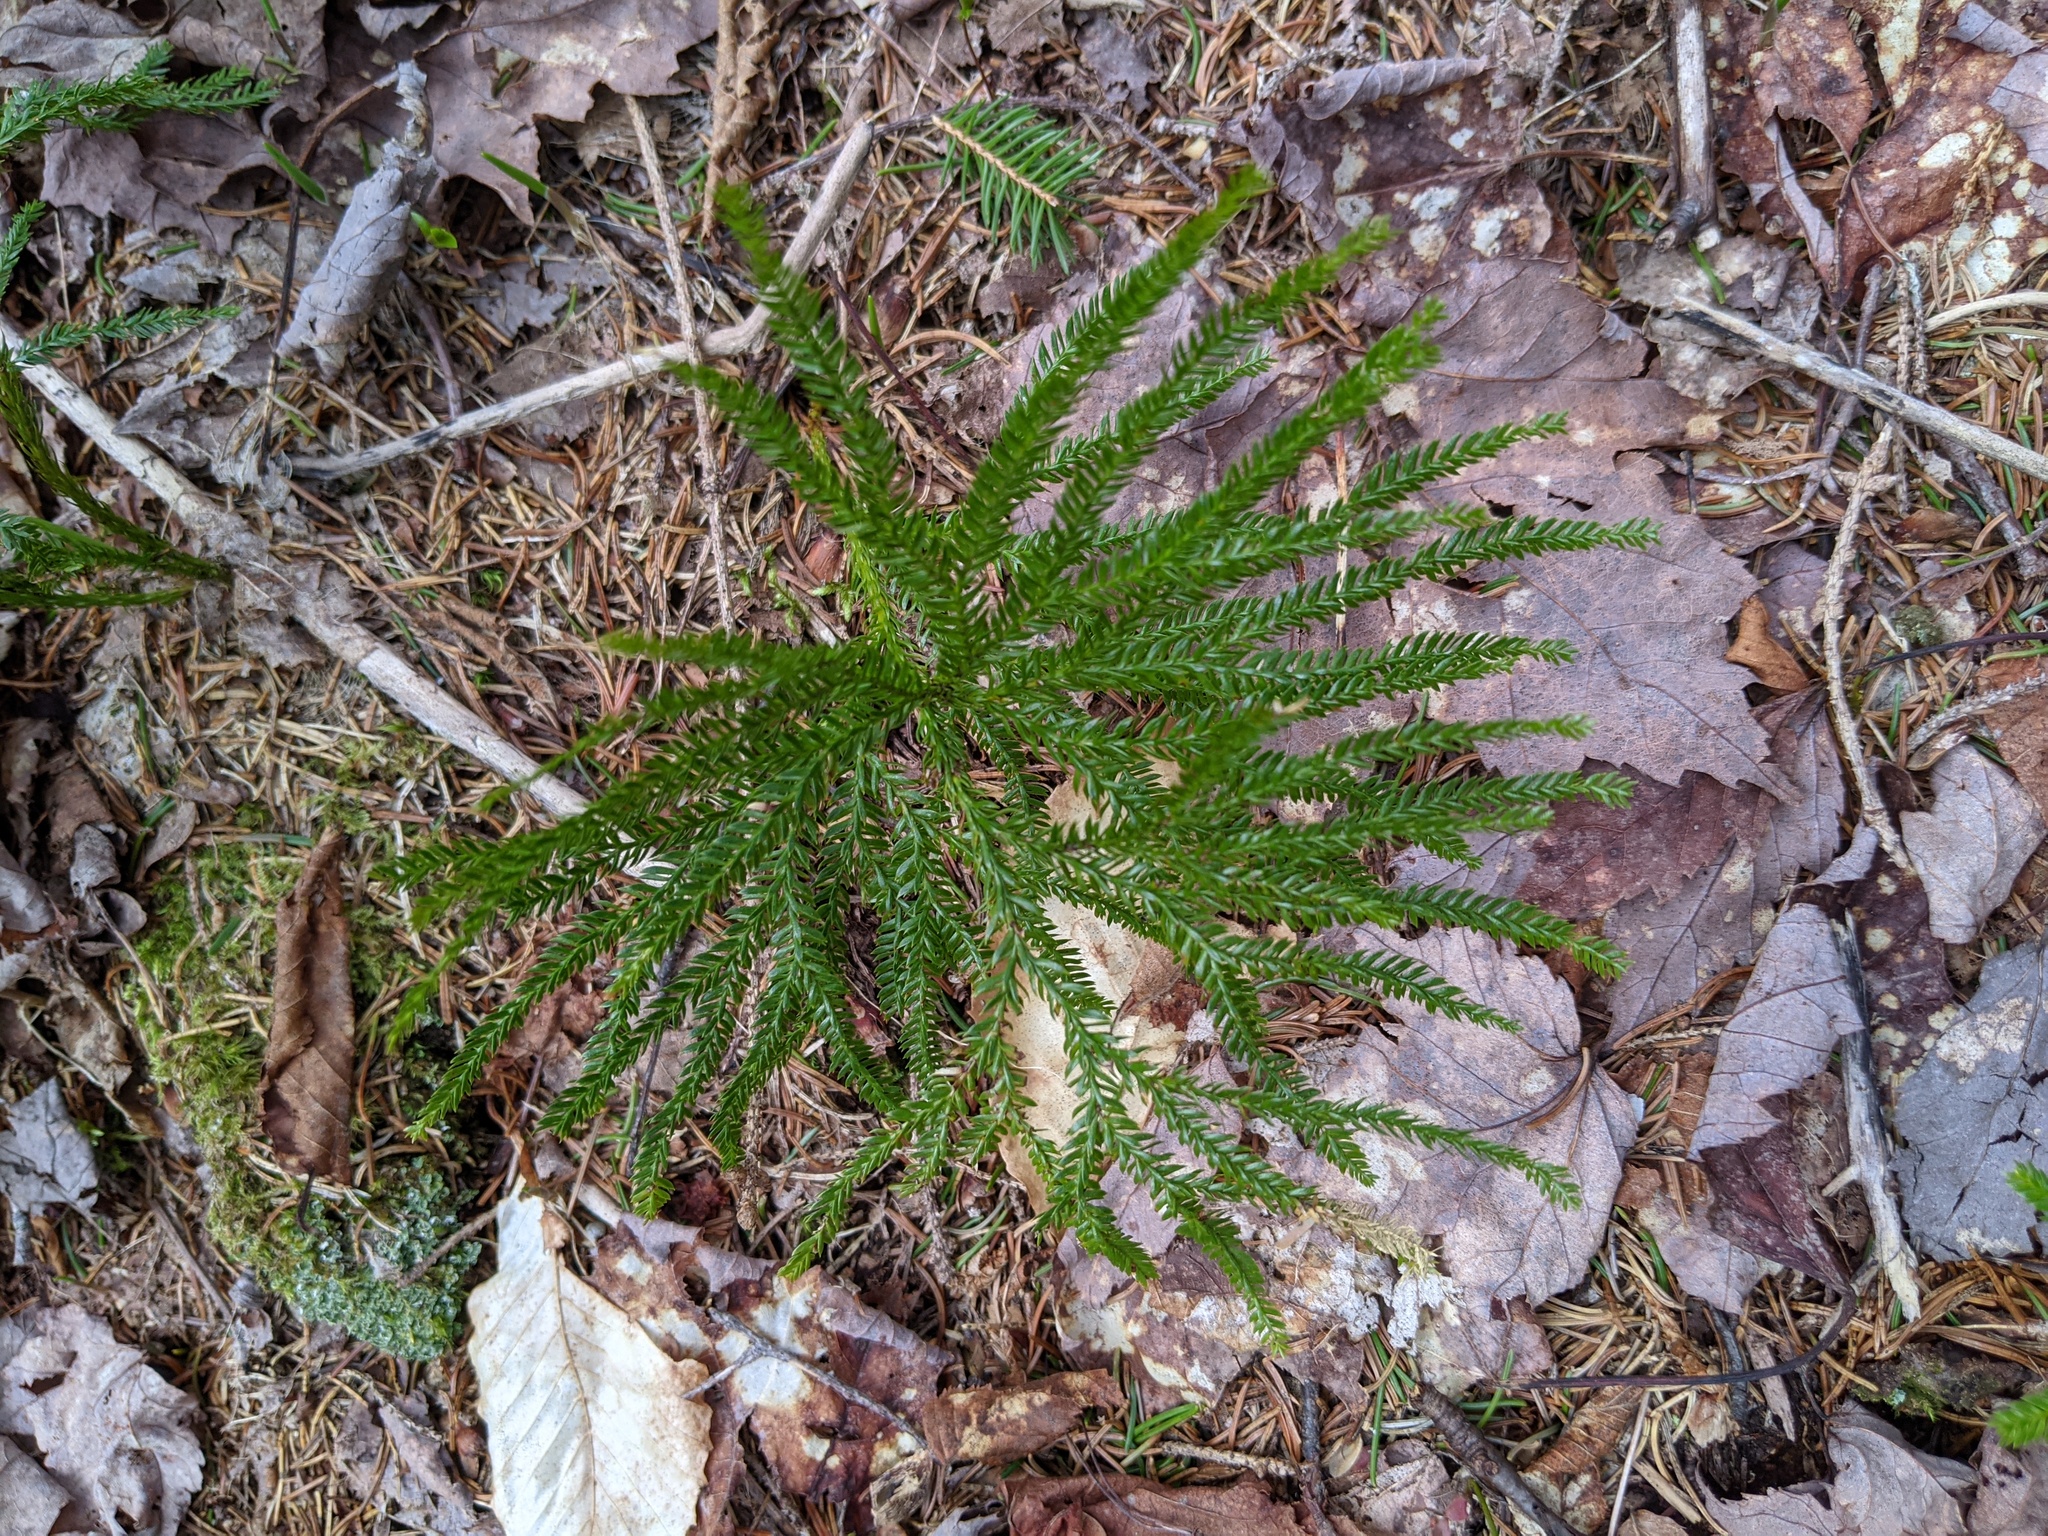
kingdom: Plantae
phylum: Tracheophyta
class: Lycopodiopsida
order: Lycopodiales
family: Lycopodiaceae
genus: Dendrolycopodium
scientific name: Dendrolycopodium dendroideum
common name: Northern tree-clubmoss
